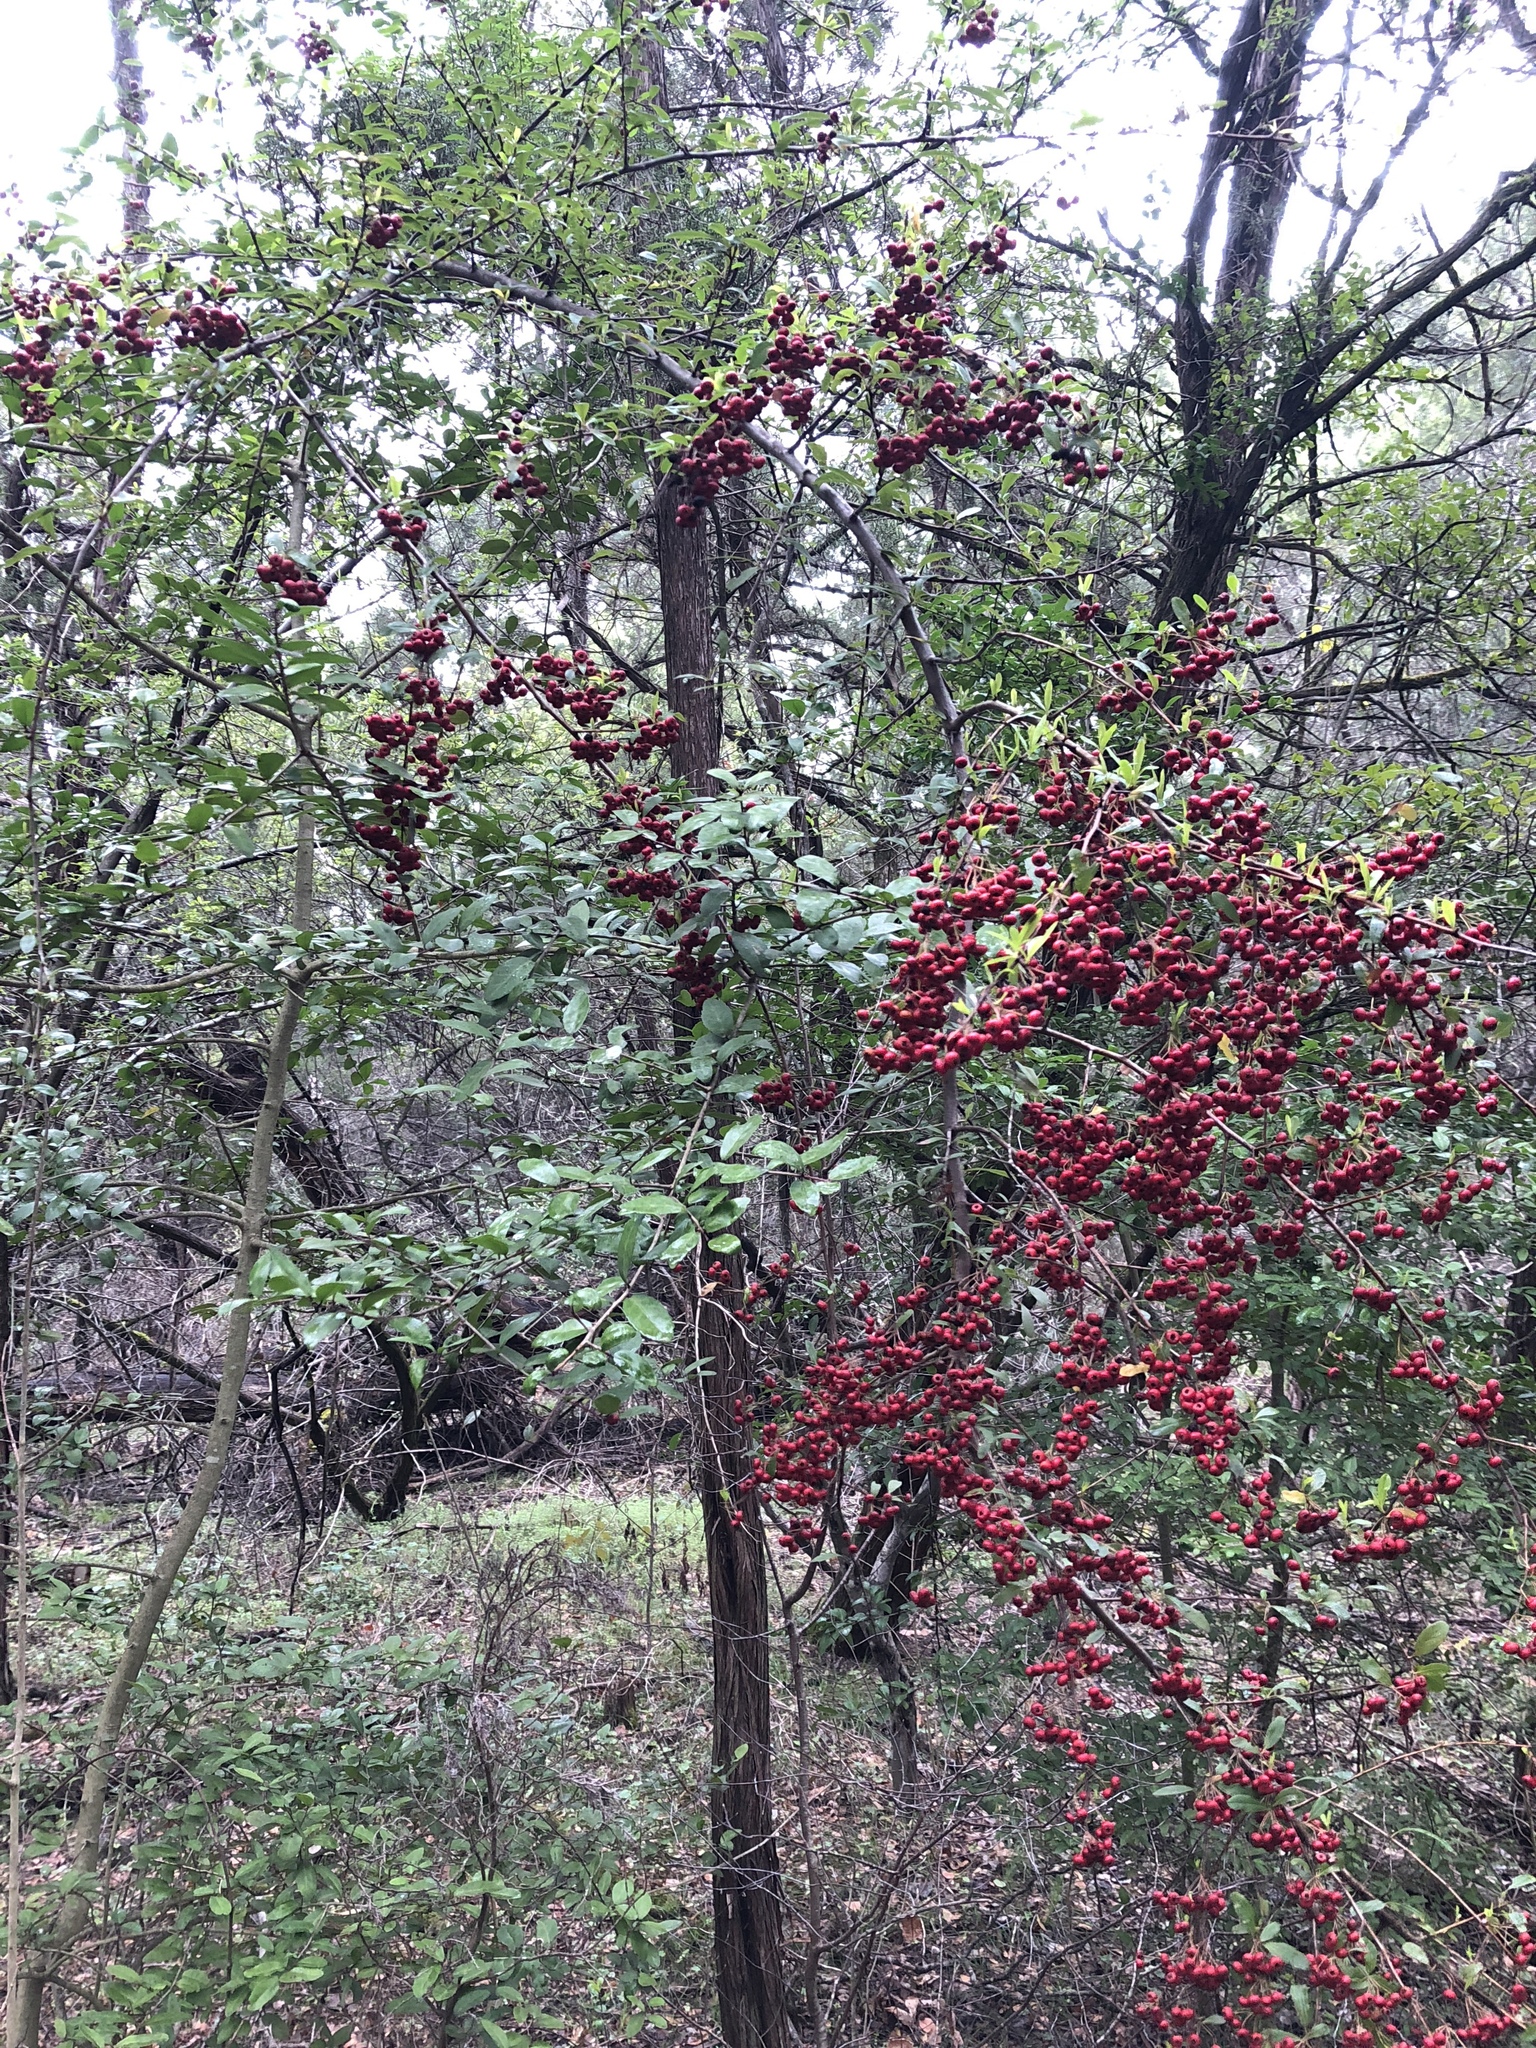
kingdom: Plantae
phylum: Tracheophyta
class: Magnoliopsida
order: Rosales
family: Rosaceae
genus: Pyracantha
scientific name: Pyracantha coccinea
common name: Firethorn
